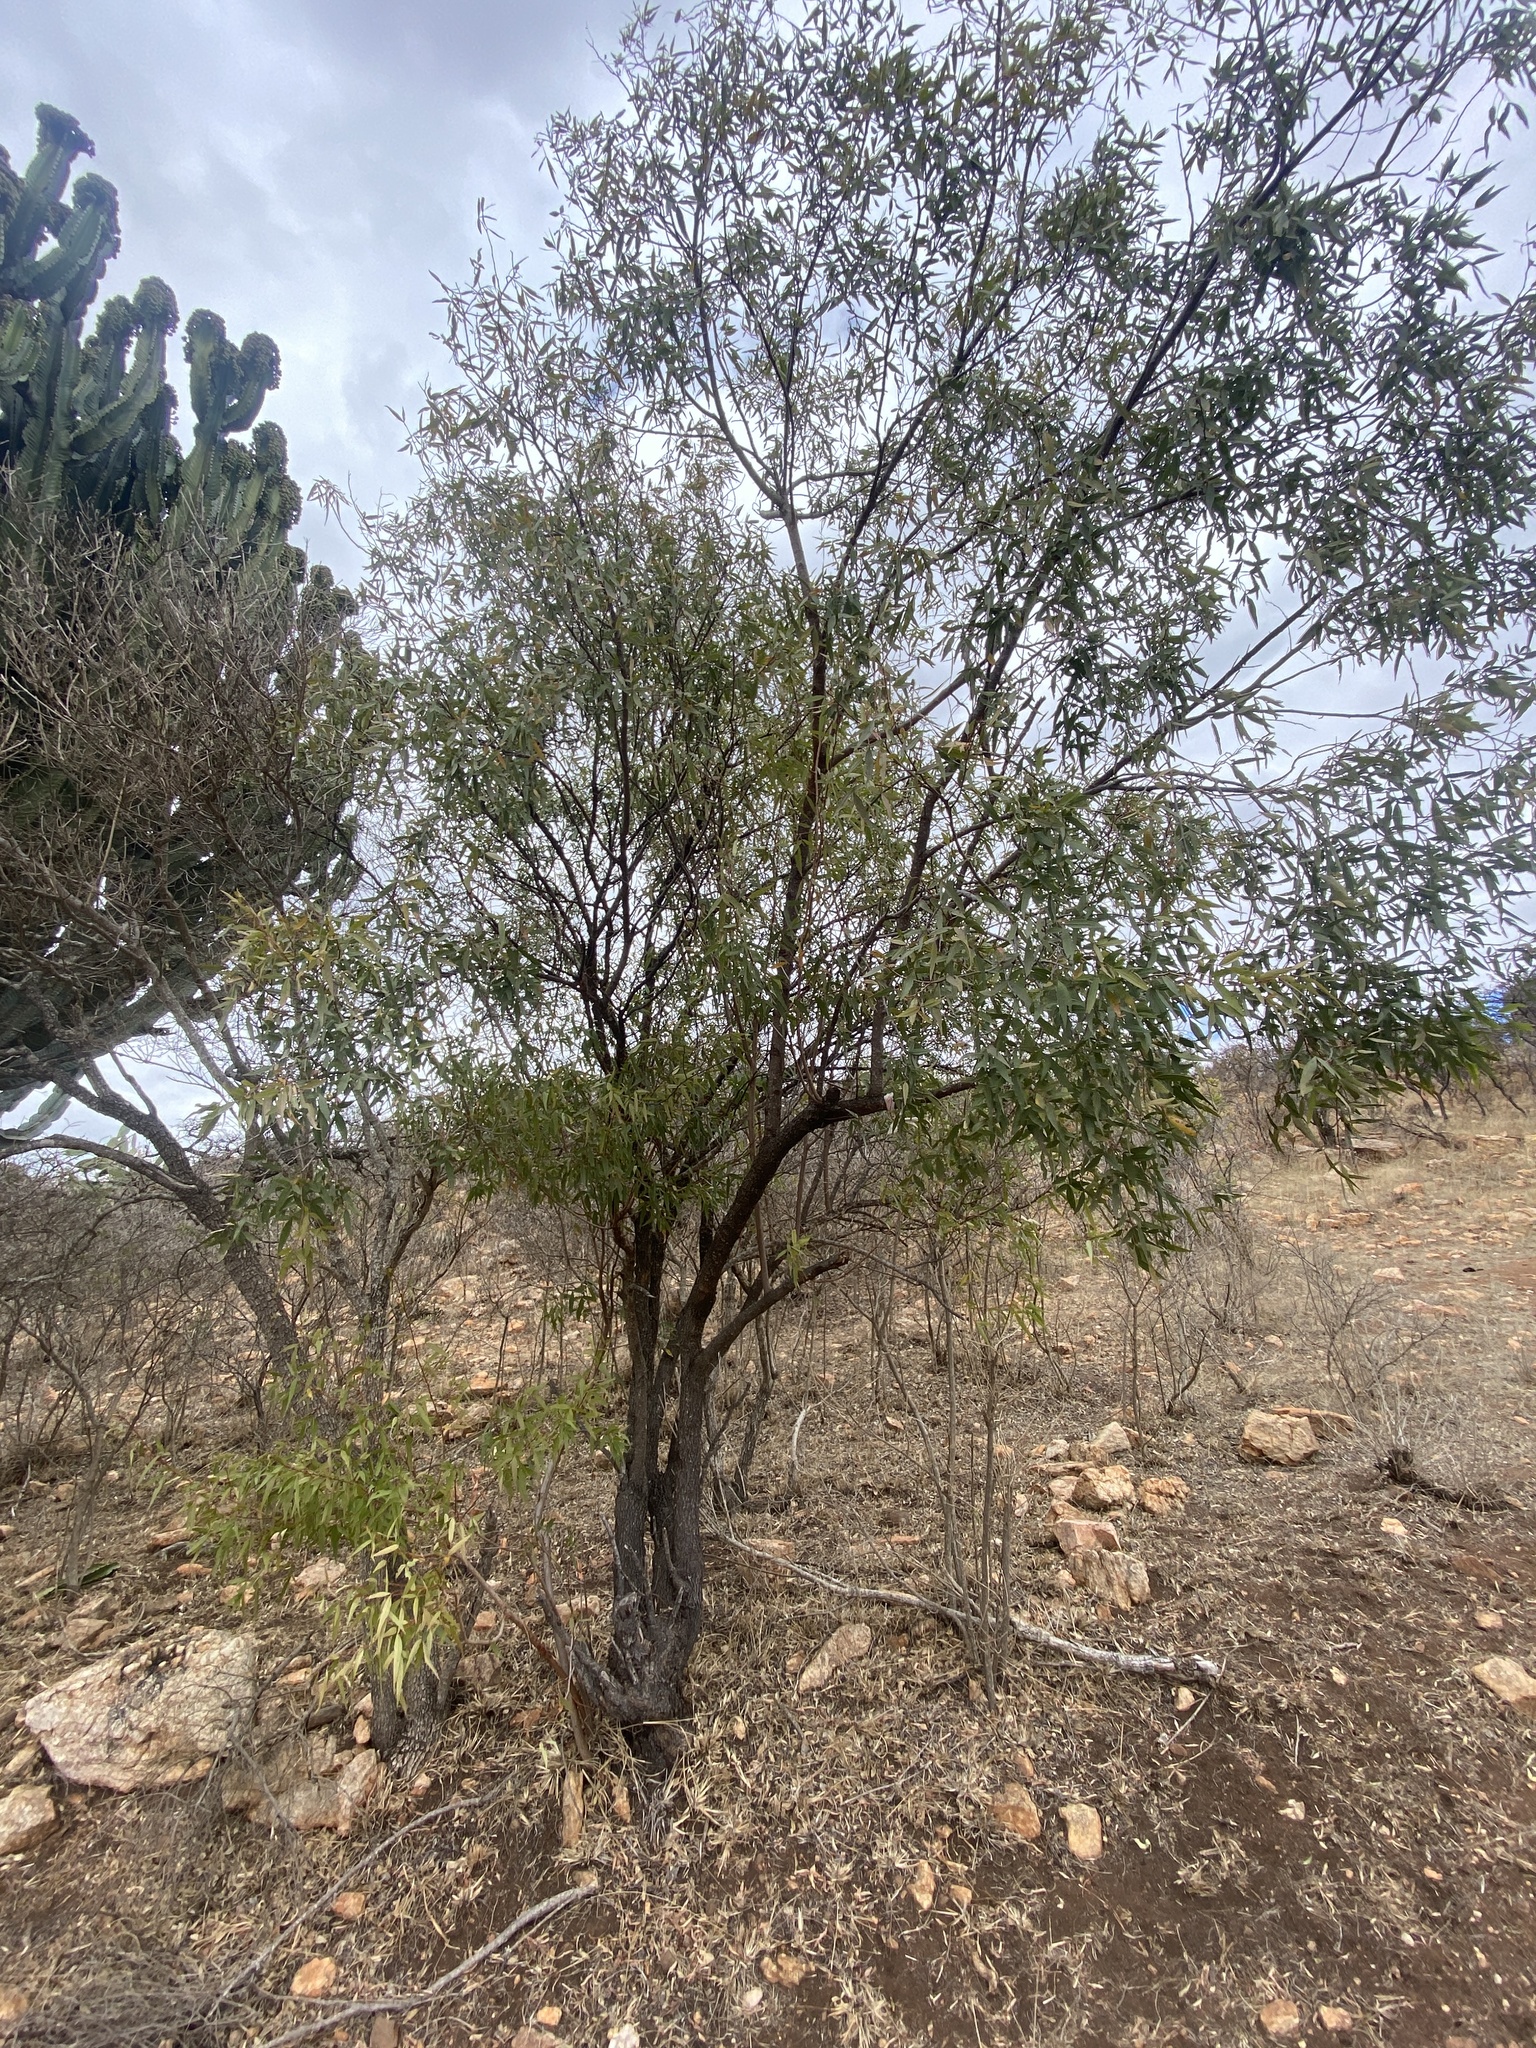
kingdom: Plantae
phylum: Tracheophyta
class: Magnoliopsida
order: Sapindales
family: Anacardiaceae
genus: Searsia
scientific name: Searsia leptodictya
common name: Mountain karee
